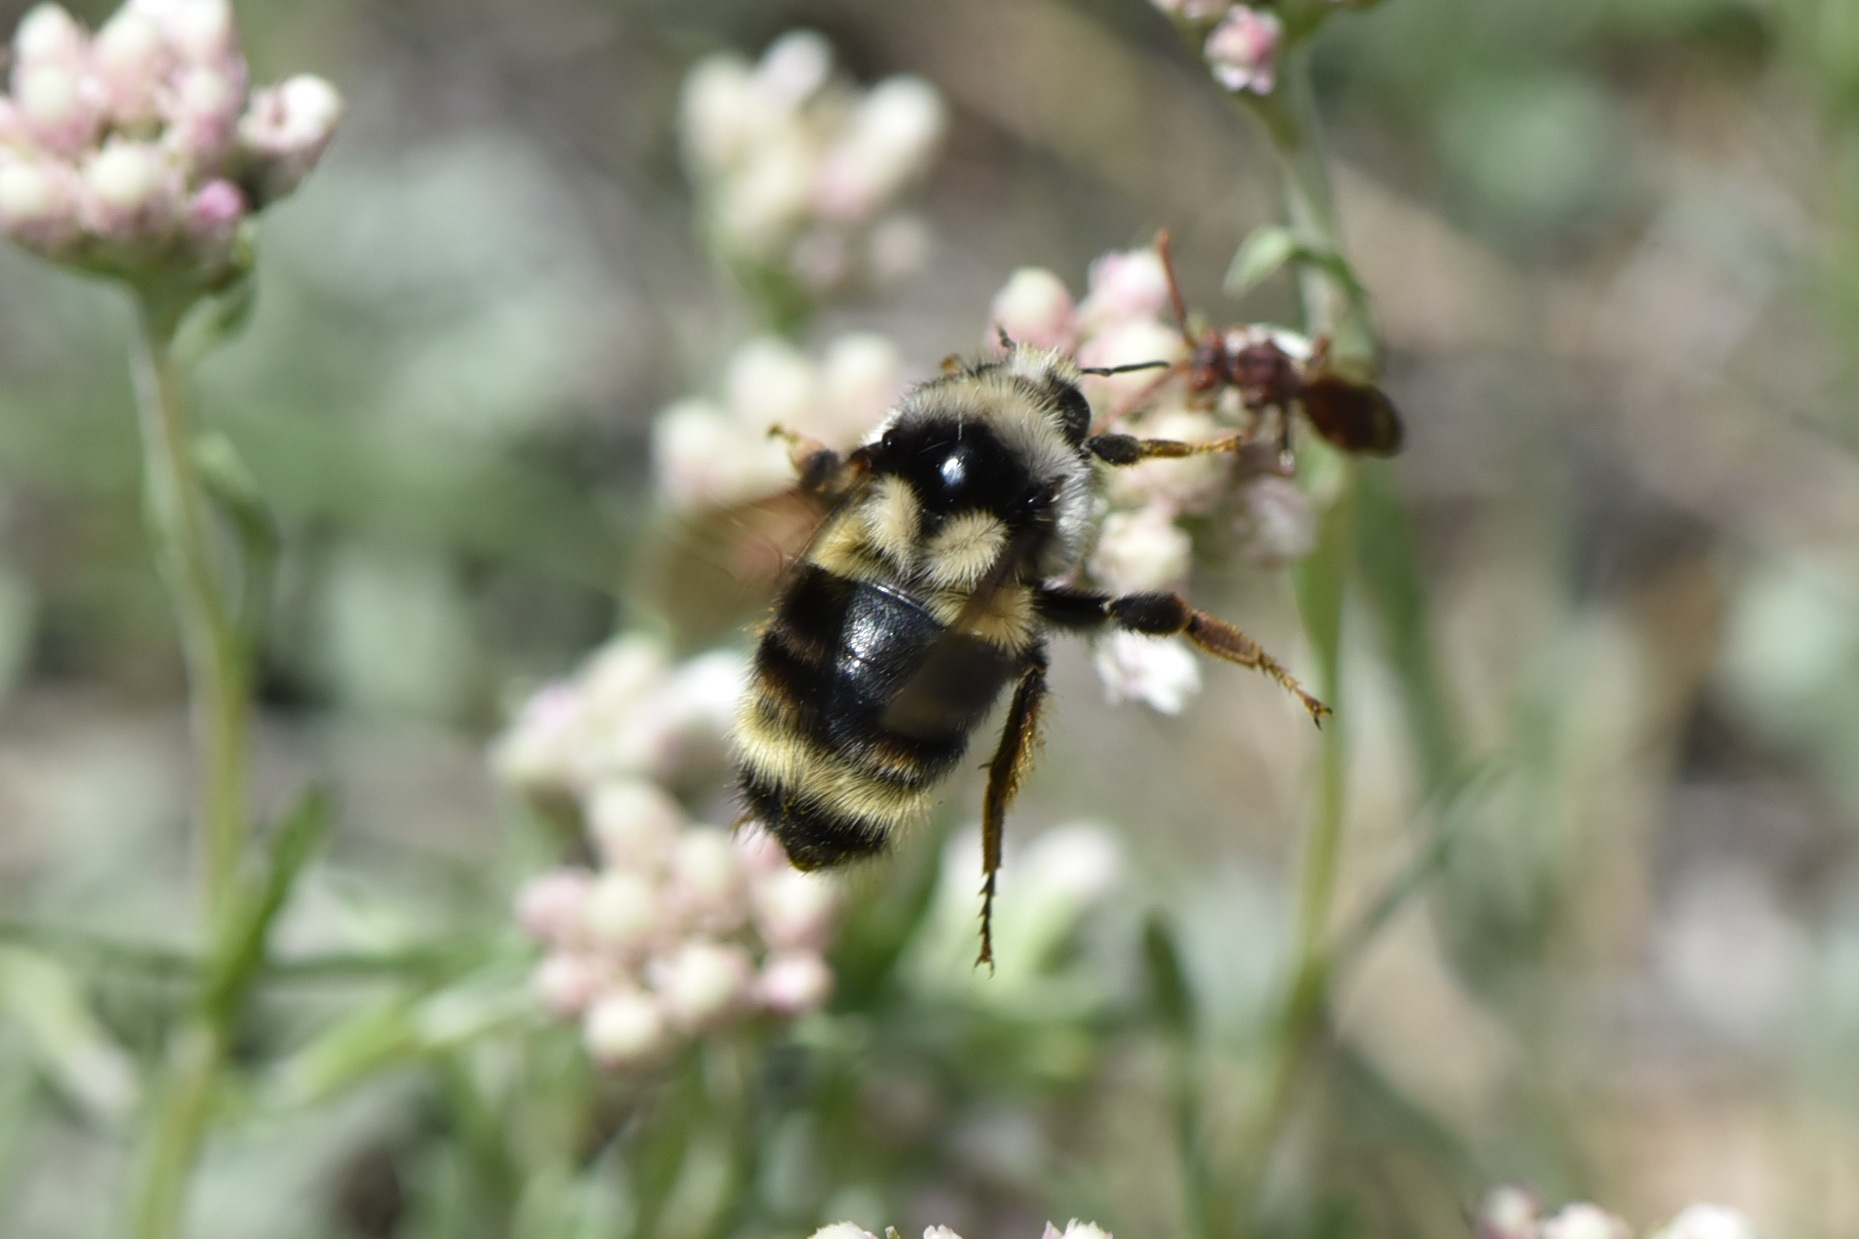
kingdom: Animalia
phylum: Arthropoda
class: Insecta
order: Hymenoptera
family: Apidae
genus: Bombus
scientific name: Bombus vancouverensis
